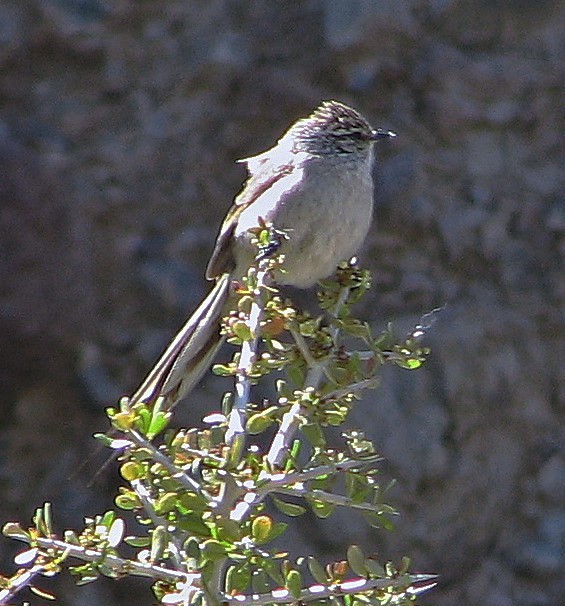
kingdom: Animalia
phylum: Chordata
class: Aves
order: Passeriformes
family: Furnariidae
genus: Leptasthenura
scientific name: Leptasthenura aegithaloides
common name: Plain-mantled tit-spinetail
